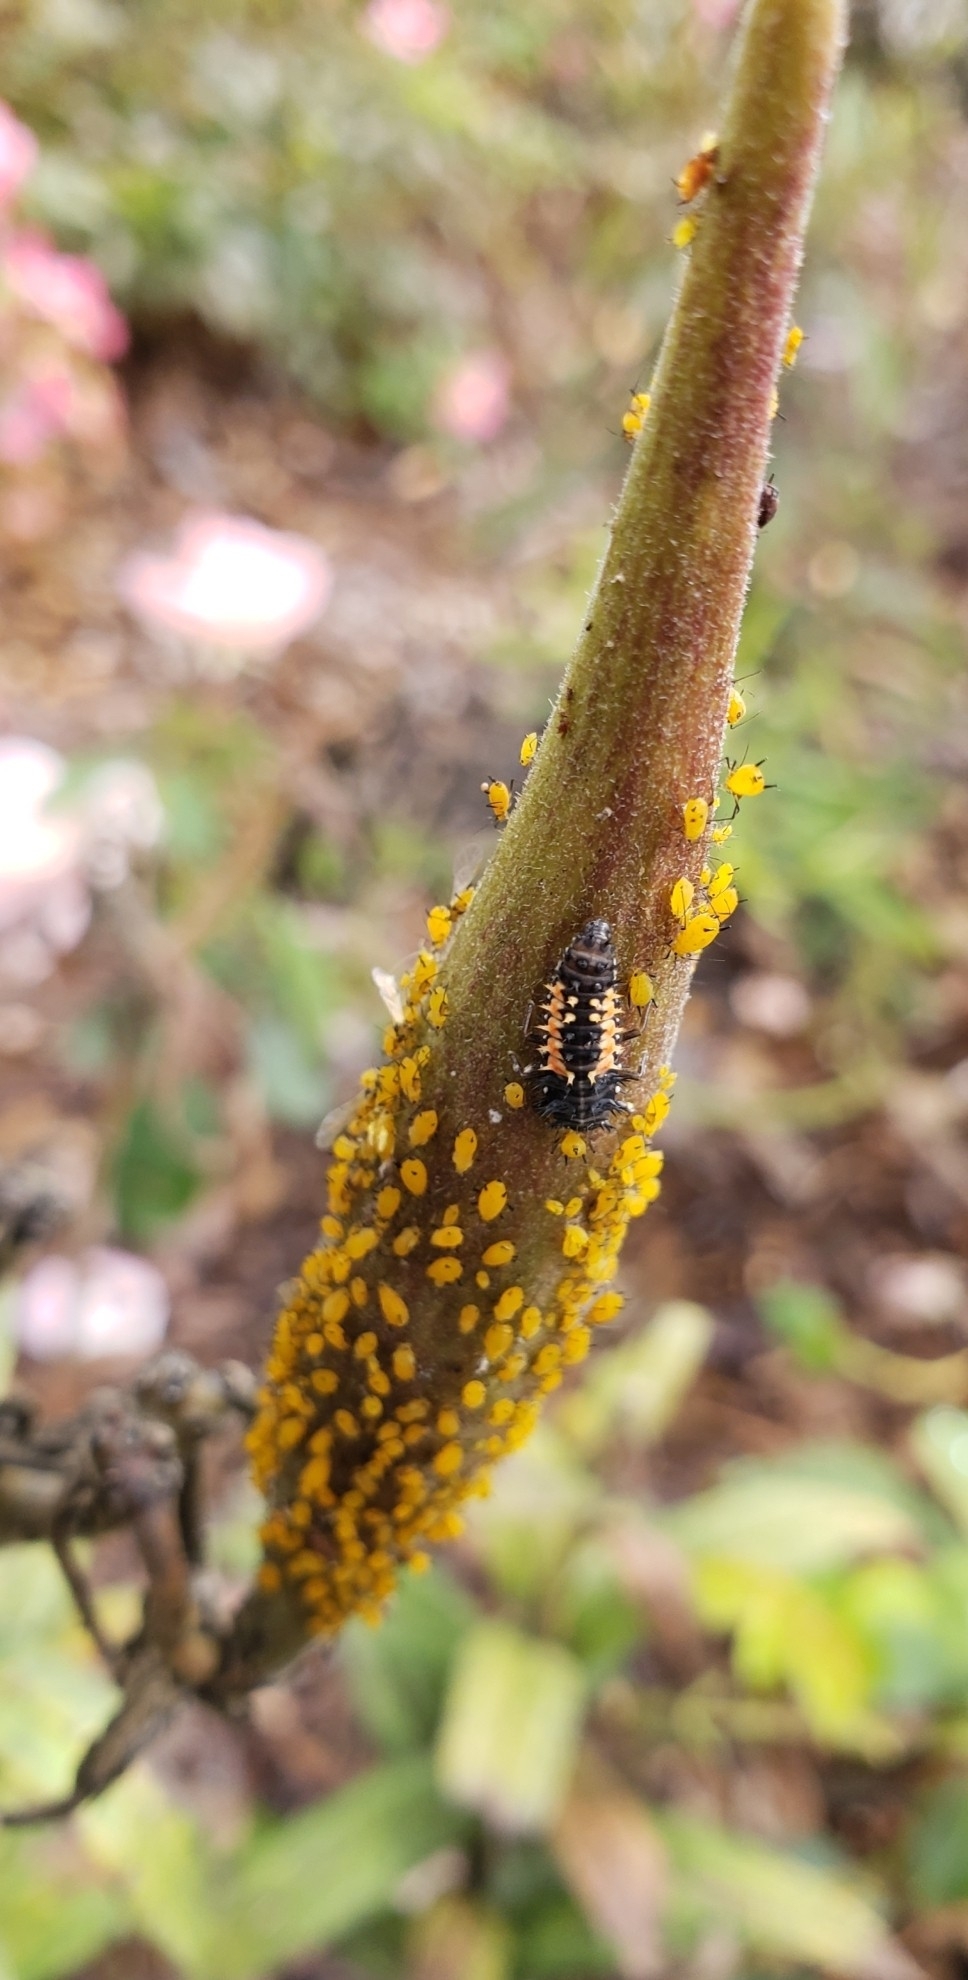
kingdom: Animalia
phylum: Arthropoda
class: Insecta
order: Hemiptera
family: Aphididae
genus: Aphis
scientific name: Aphis nerii
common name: Oleander aphid
